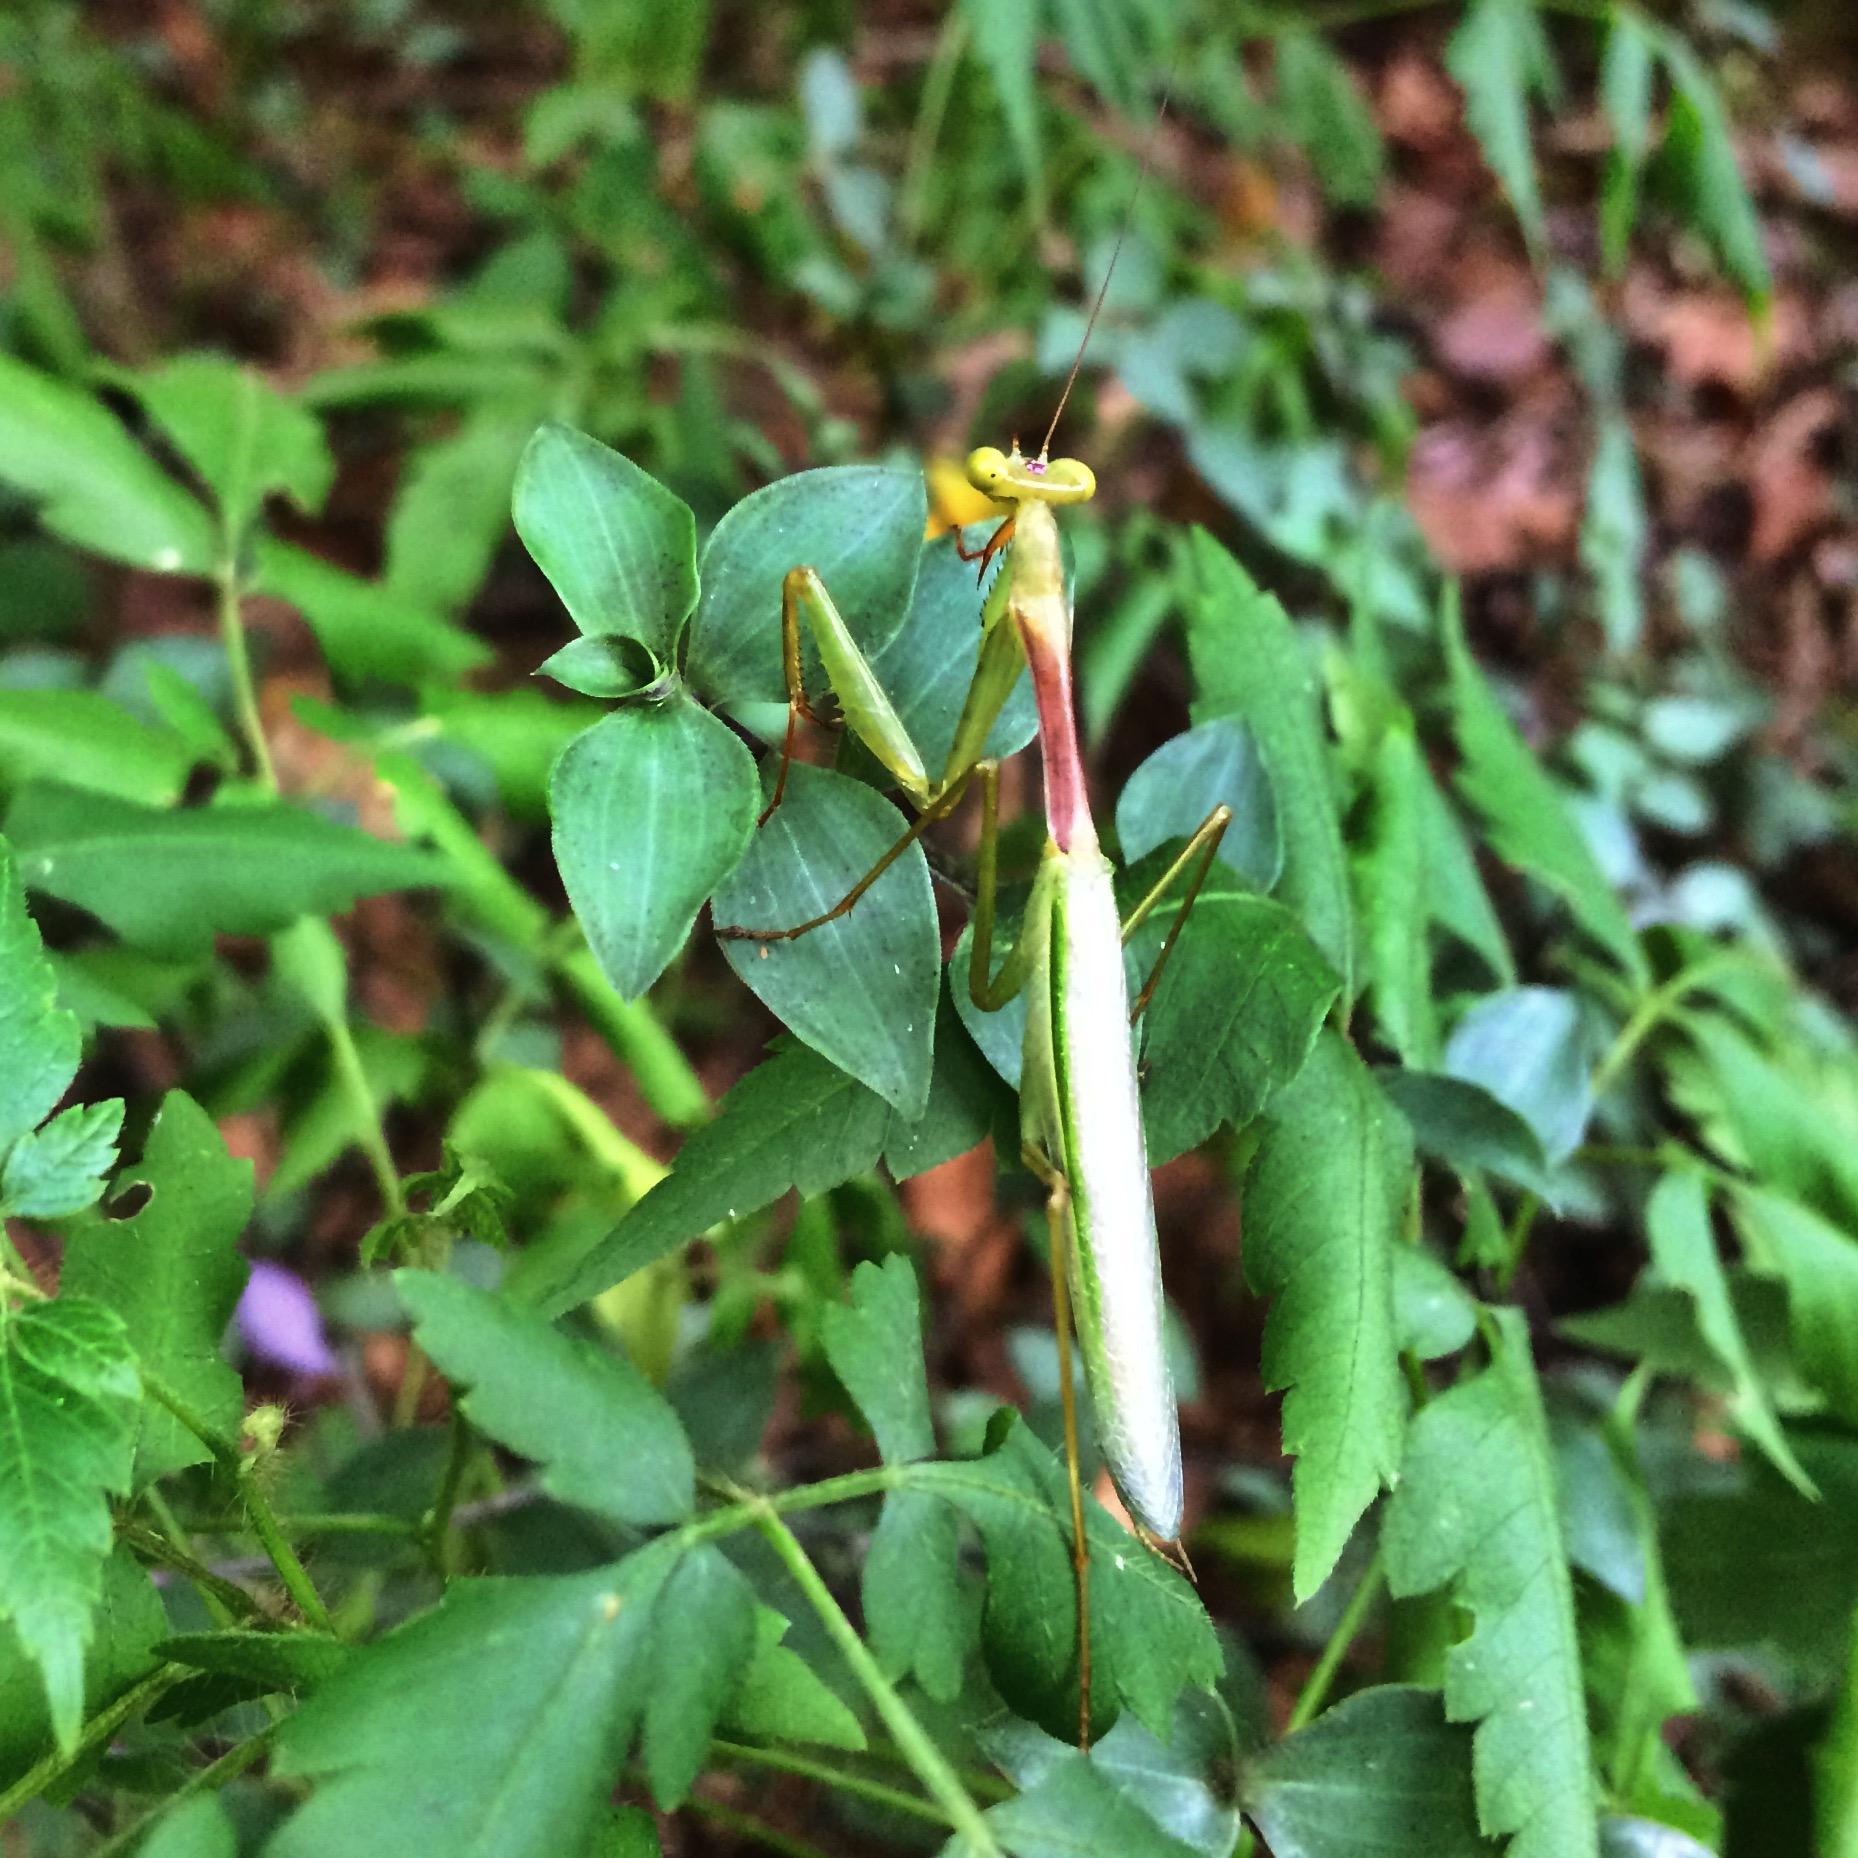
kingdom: Animalia
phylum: Arthropoda
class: Insecta
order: Mantodea
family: Miomantidae
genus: Miomantis
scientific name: Miomantis caffra
